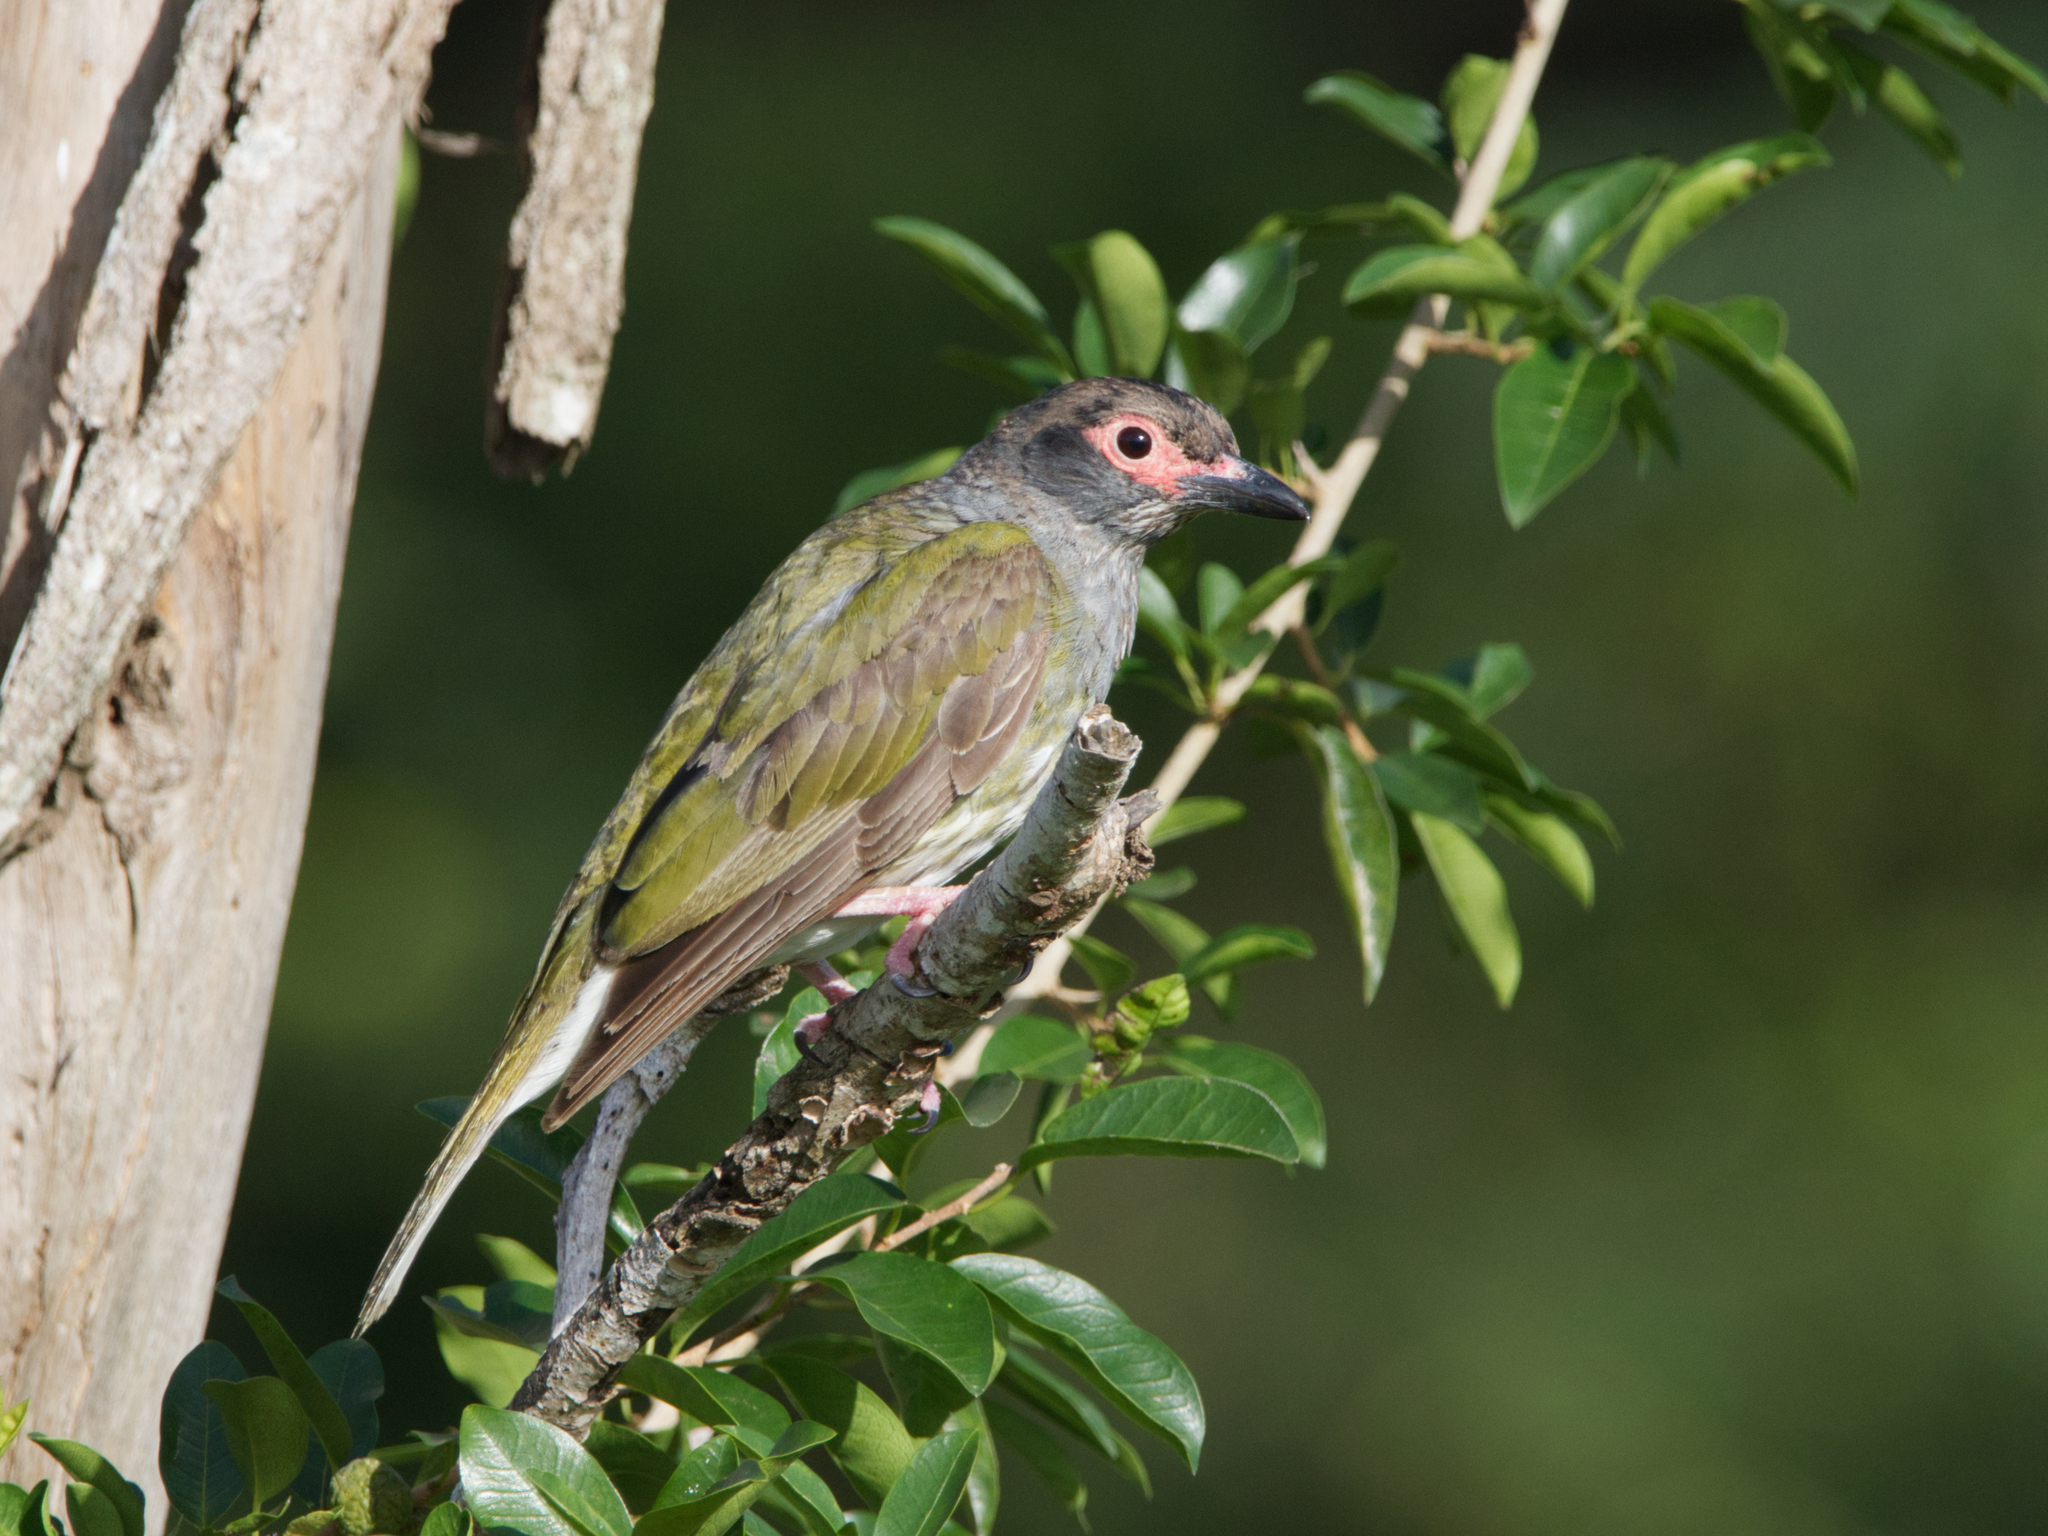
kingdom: Animalia
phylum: Chordata
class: Aves
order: Passeriformes
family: Oriolidae
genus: Sphecotheres
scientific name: Sphecotheres vieilloti
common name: Australasian figbird
